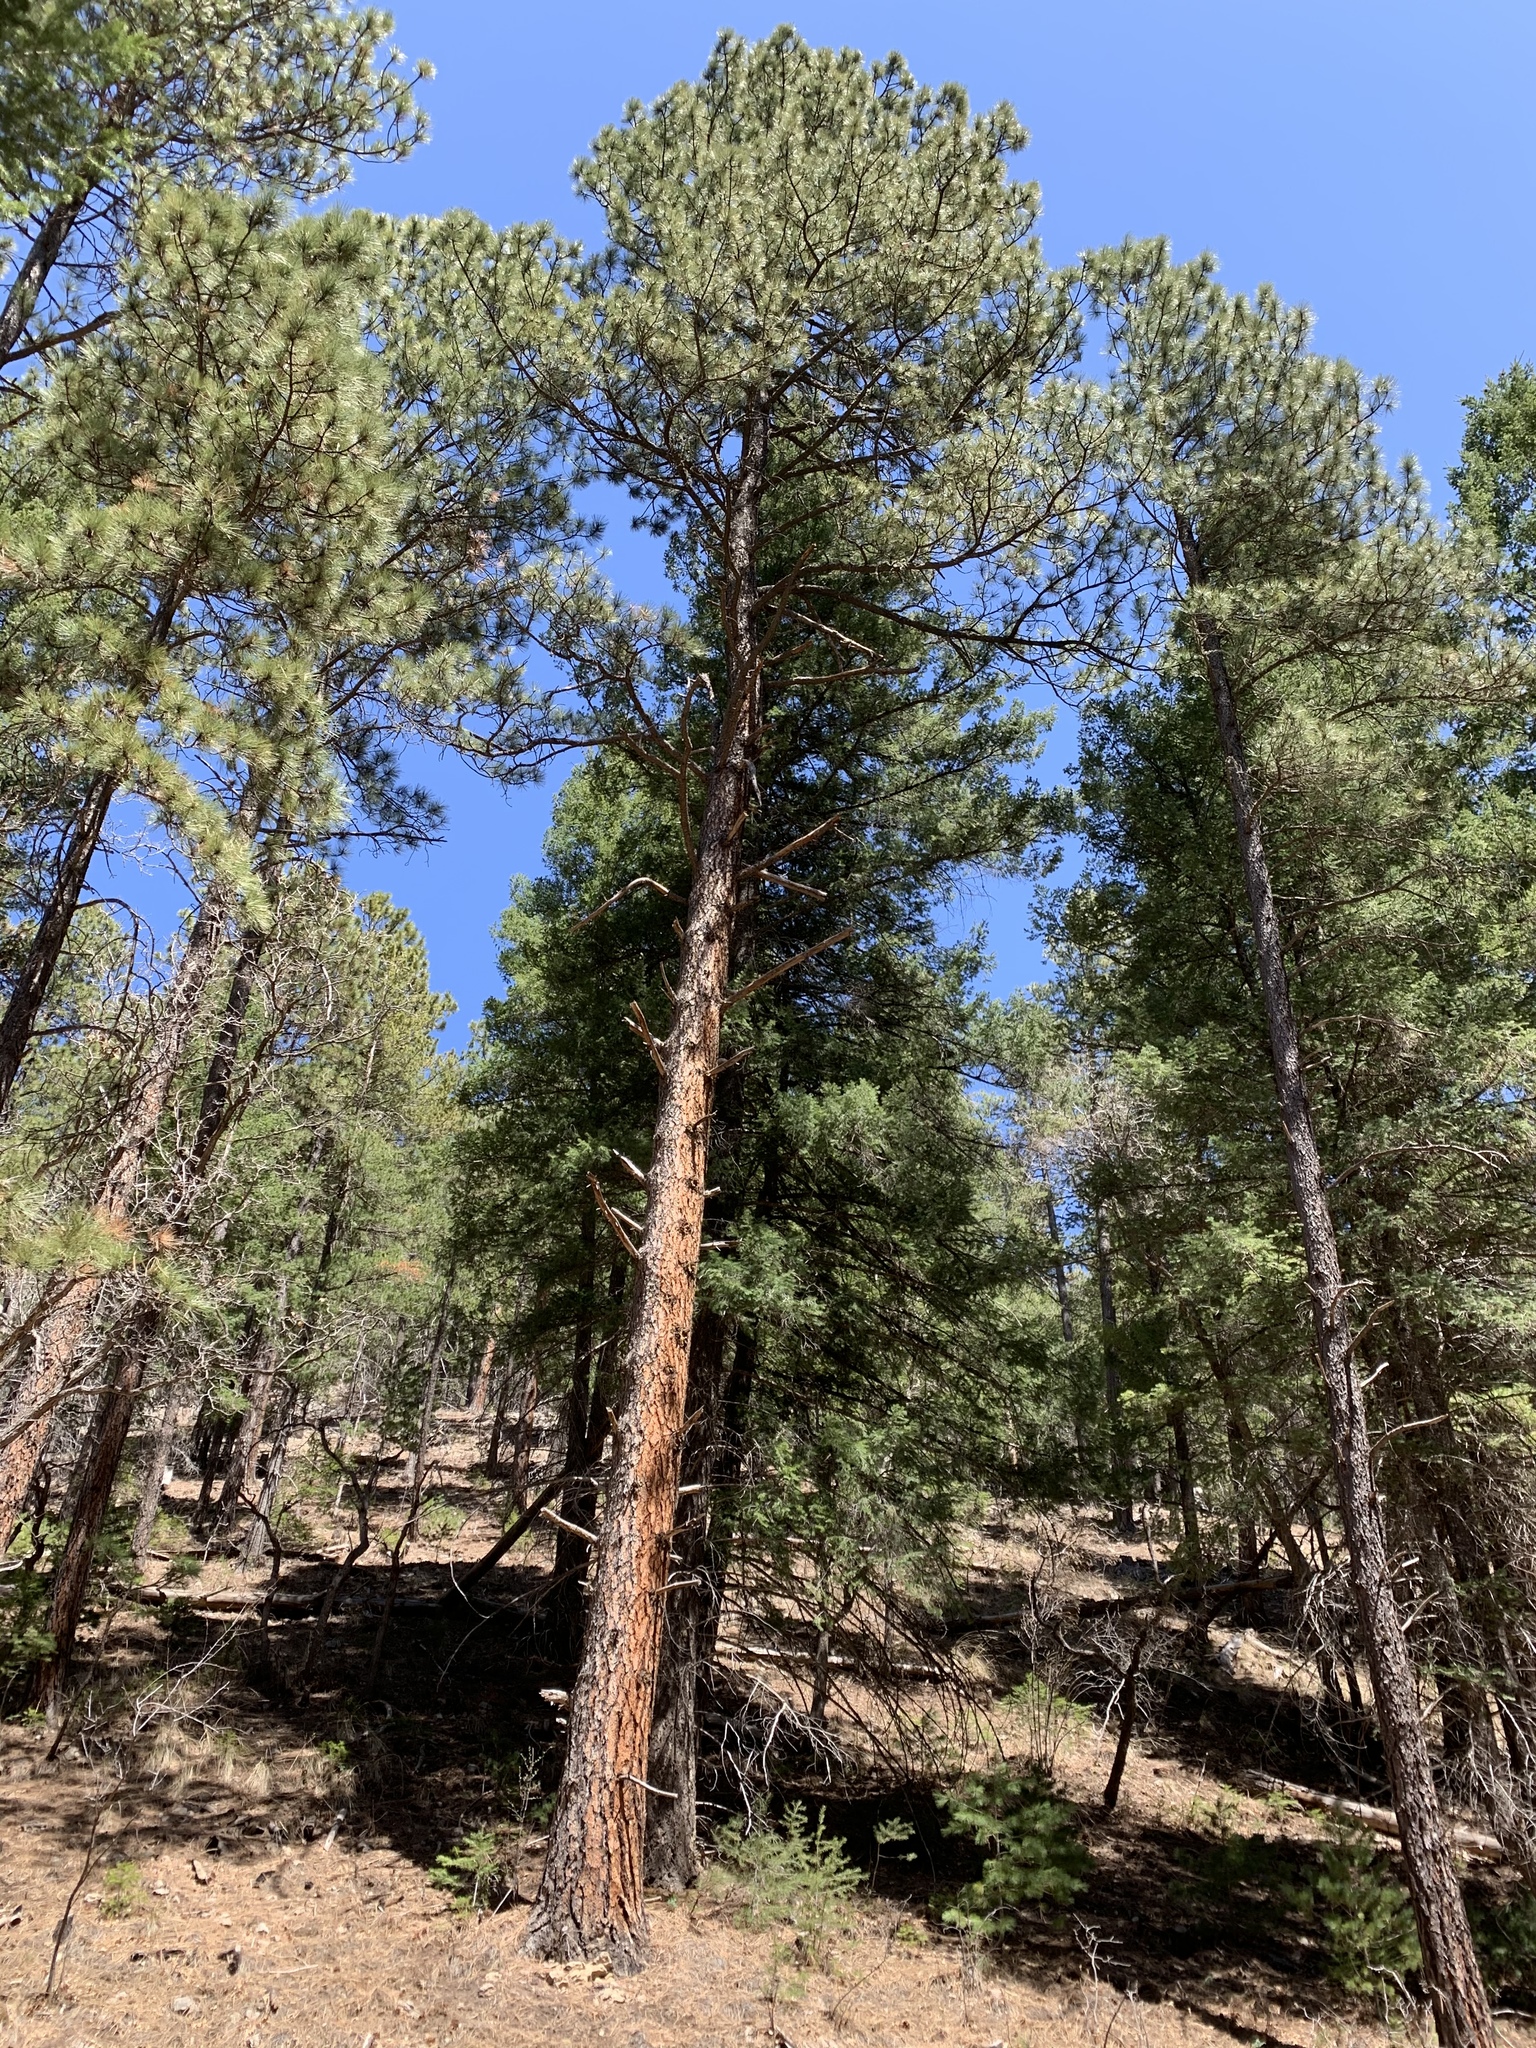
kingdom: Plantae
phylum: Tracheophyta
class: Pinopsida
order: Pinales
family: Pinaceae
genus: Pinus
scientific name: Pinus ponderosa
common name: Western yellow-pine
